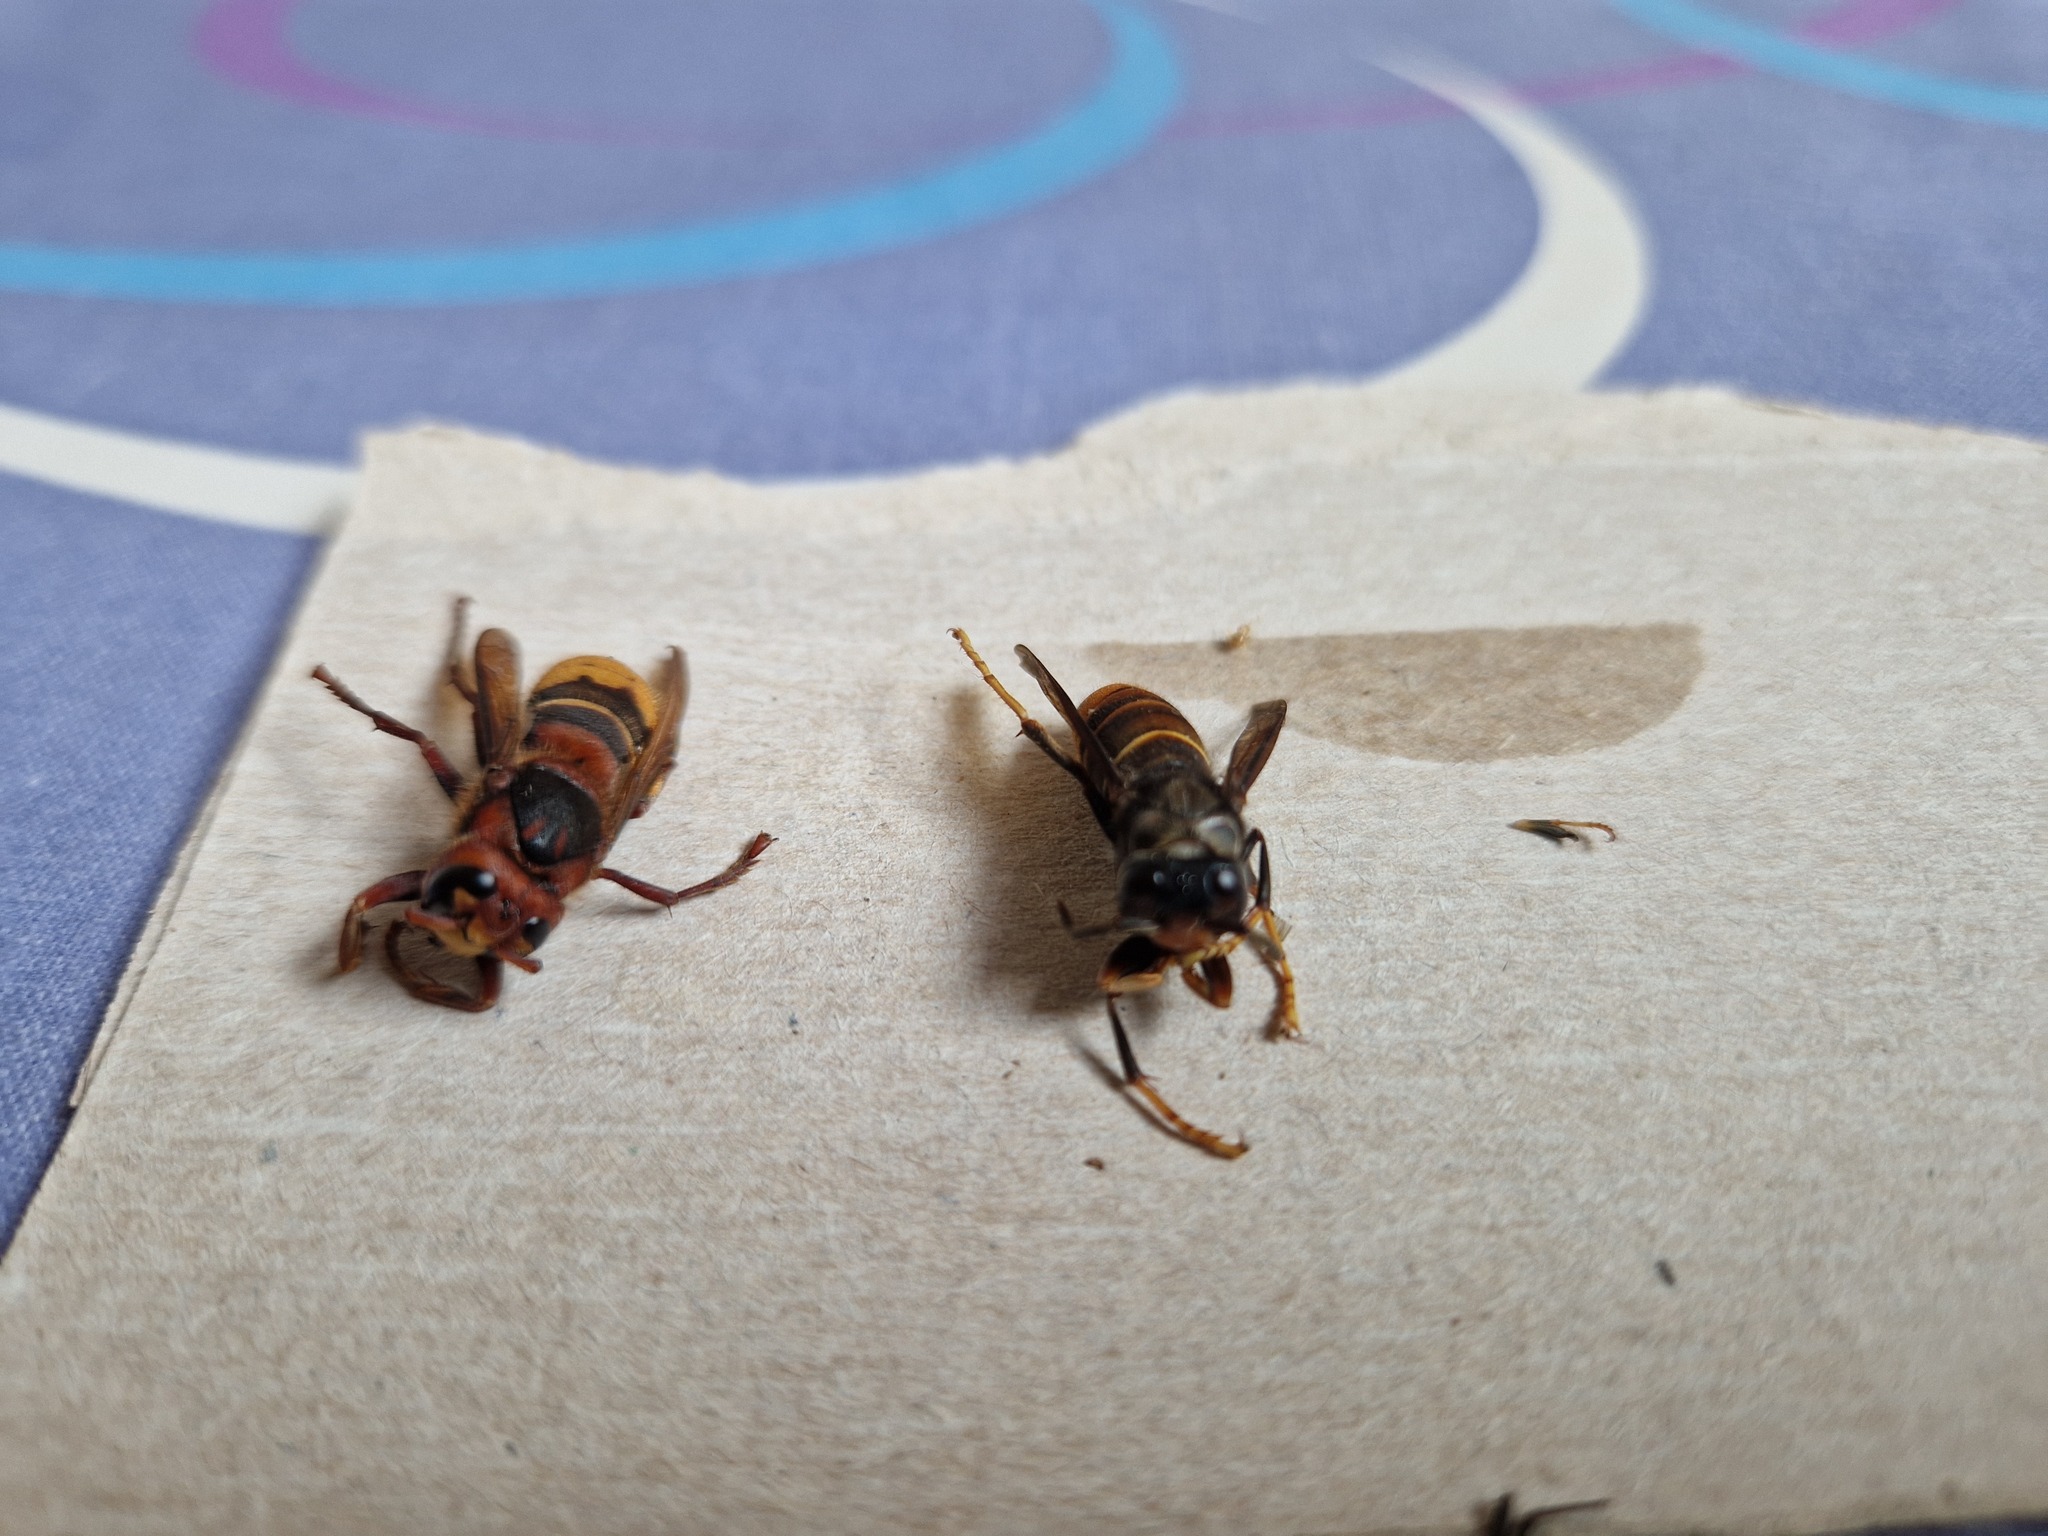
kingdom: Animalia
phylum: Arthropoda
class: Insecta
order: Hymenoptera
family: Vespidae
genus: Vespa
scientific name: Vespa velutina
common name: Asian hornet
